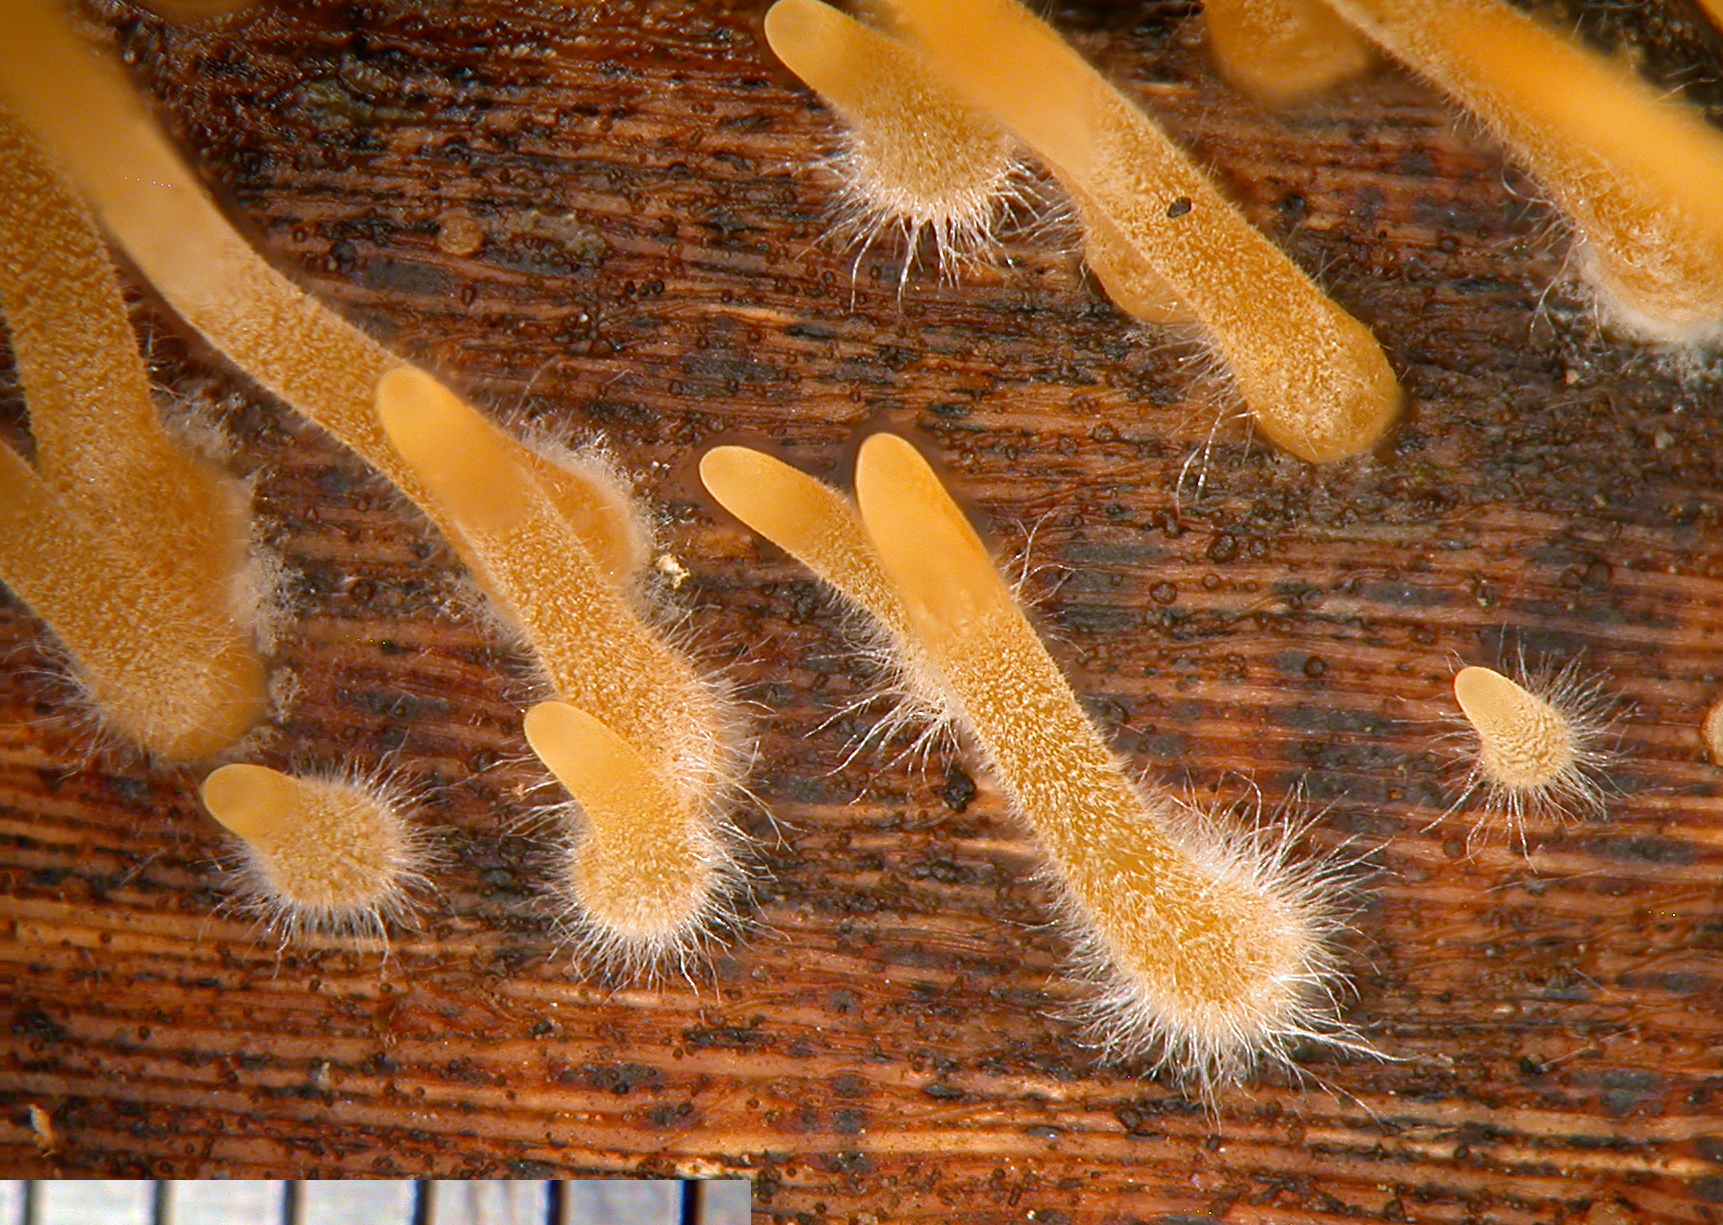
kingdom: Fungi
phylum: Basidiomycota
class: Agaricomycetes
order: Agaricales
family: Typhulaceae
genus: Macrotyphula
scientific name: Macrotyphula defibulata
